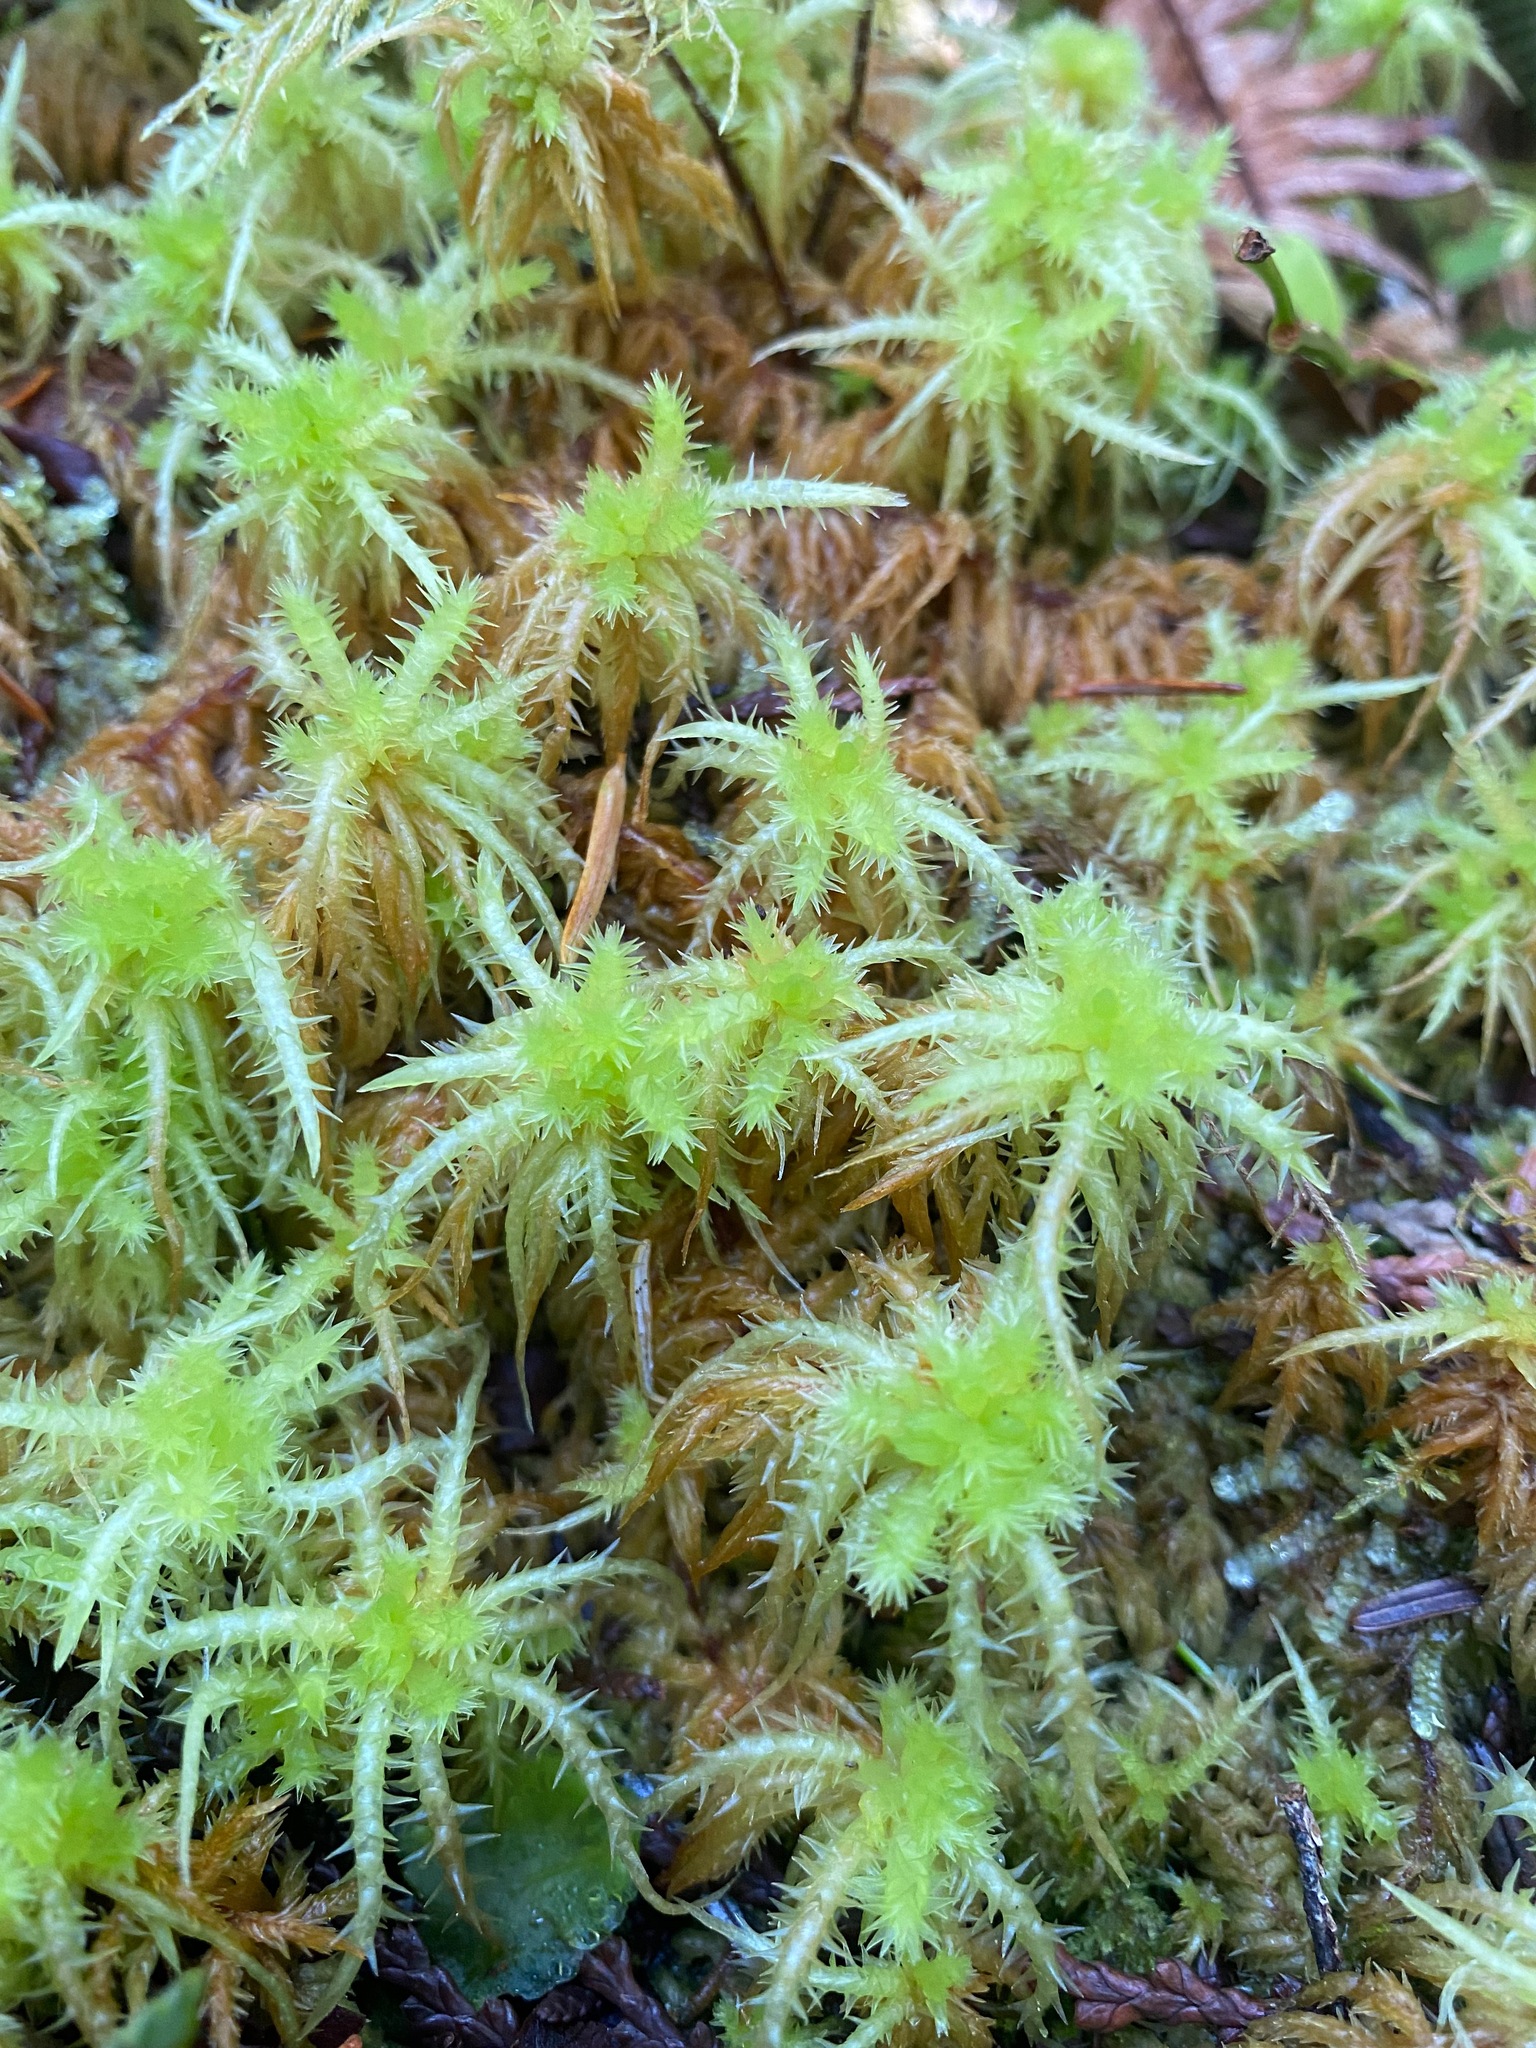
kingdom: Plantae
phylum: Bryophyta
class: Sphagnopsida
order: Sphagnales
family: Sphagnaceae
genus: Sphagnum
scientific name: Sphagnum squarrosum
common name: Shaggy peat moss
